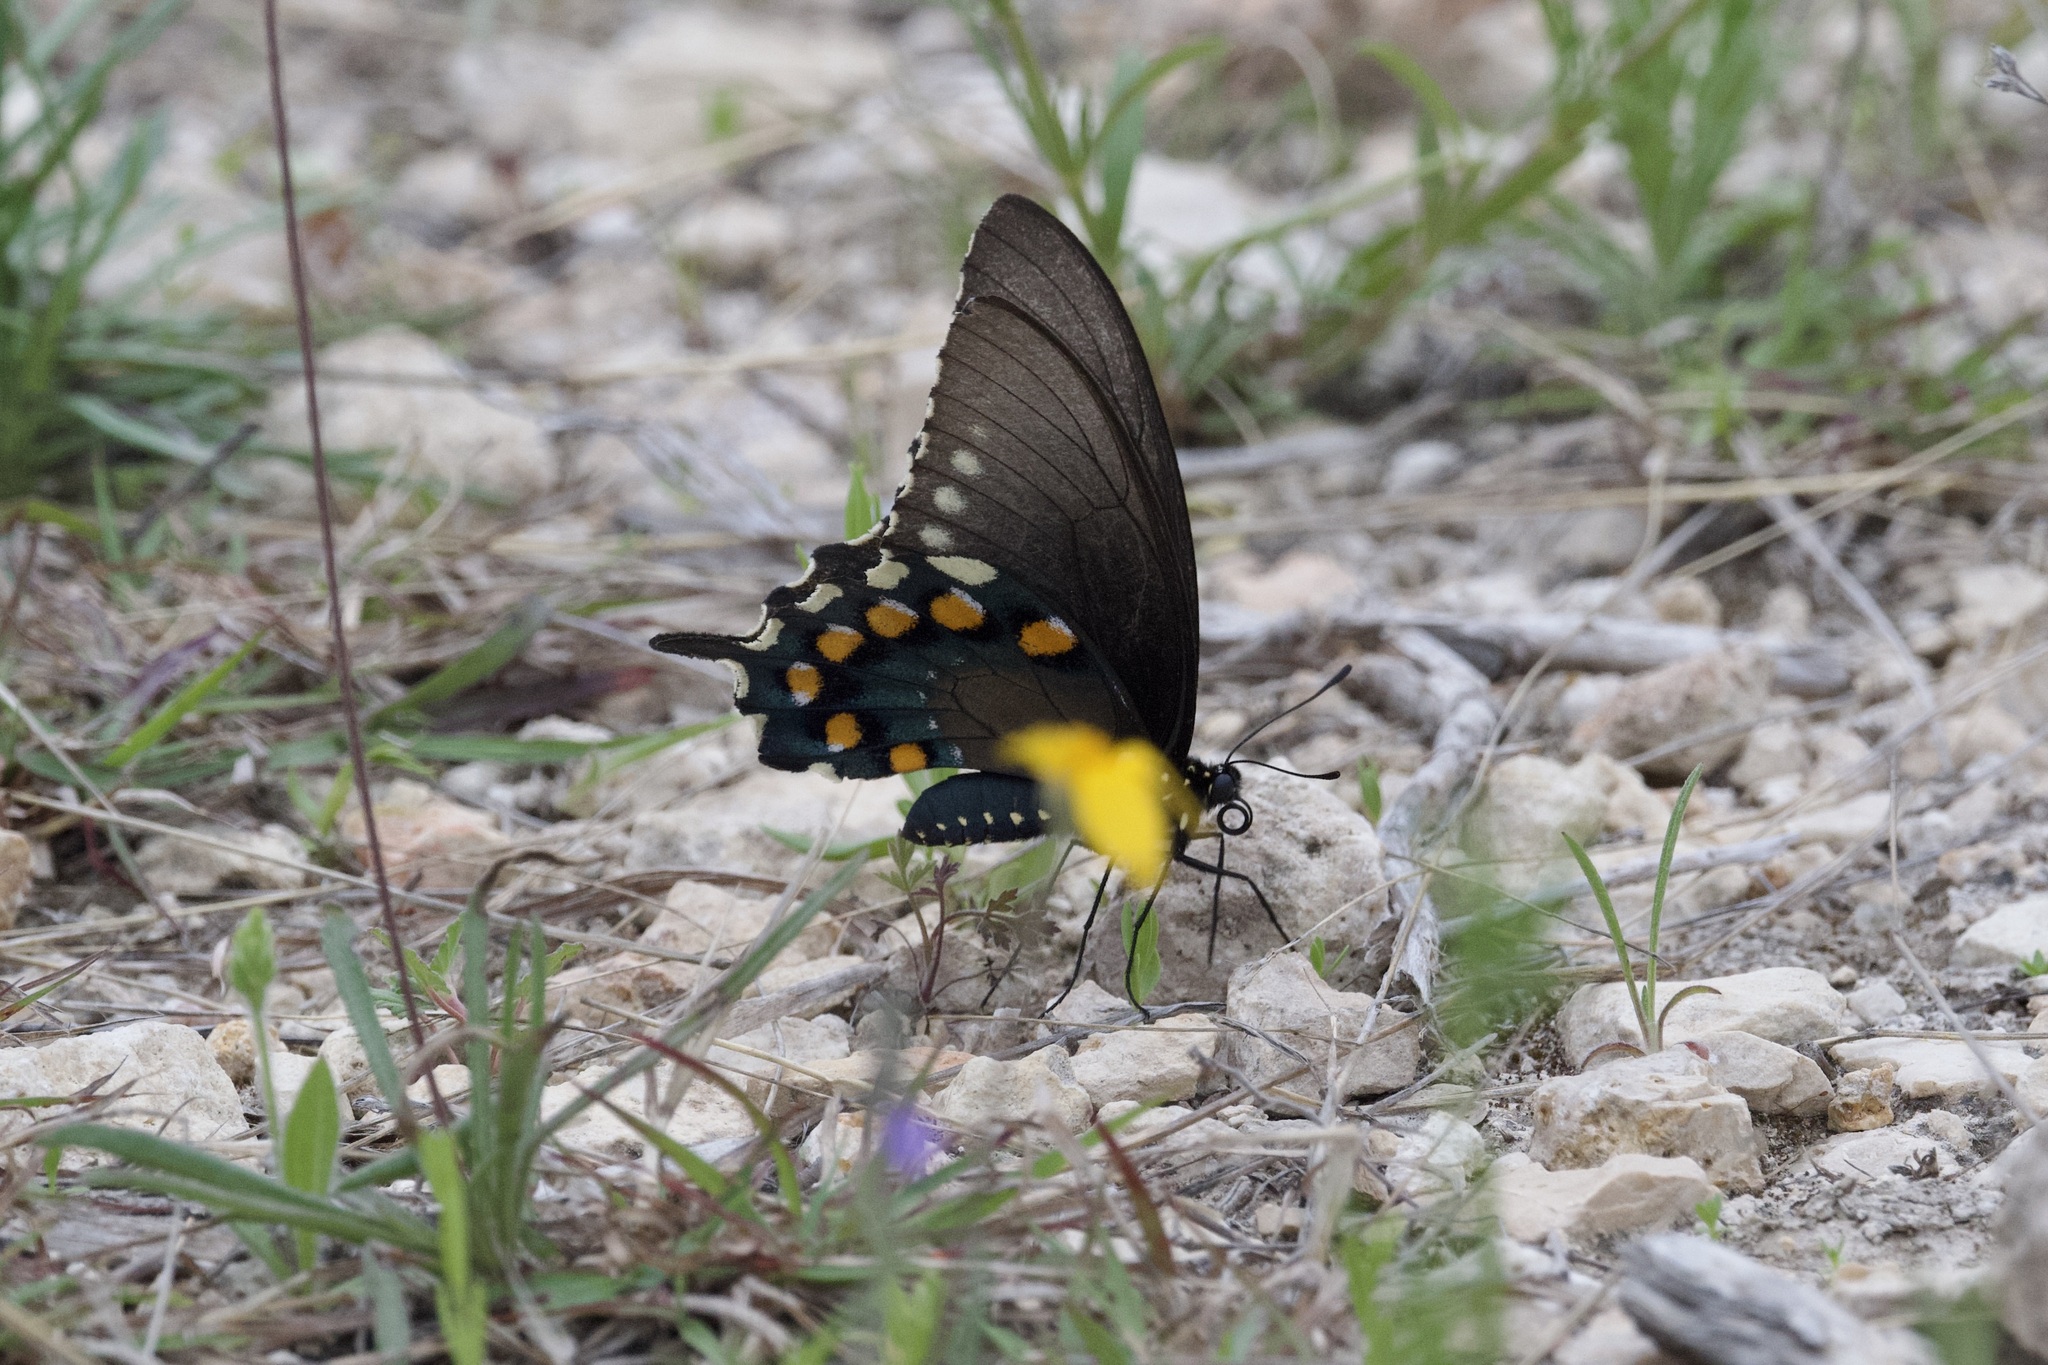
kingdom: Animalia
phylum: Arthropoda
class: Insecta
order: Lepidoptera
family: Papilionidae
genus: Battus
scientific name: Battus philenor
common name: Pipevine swallowtail
